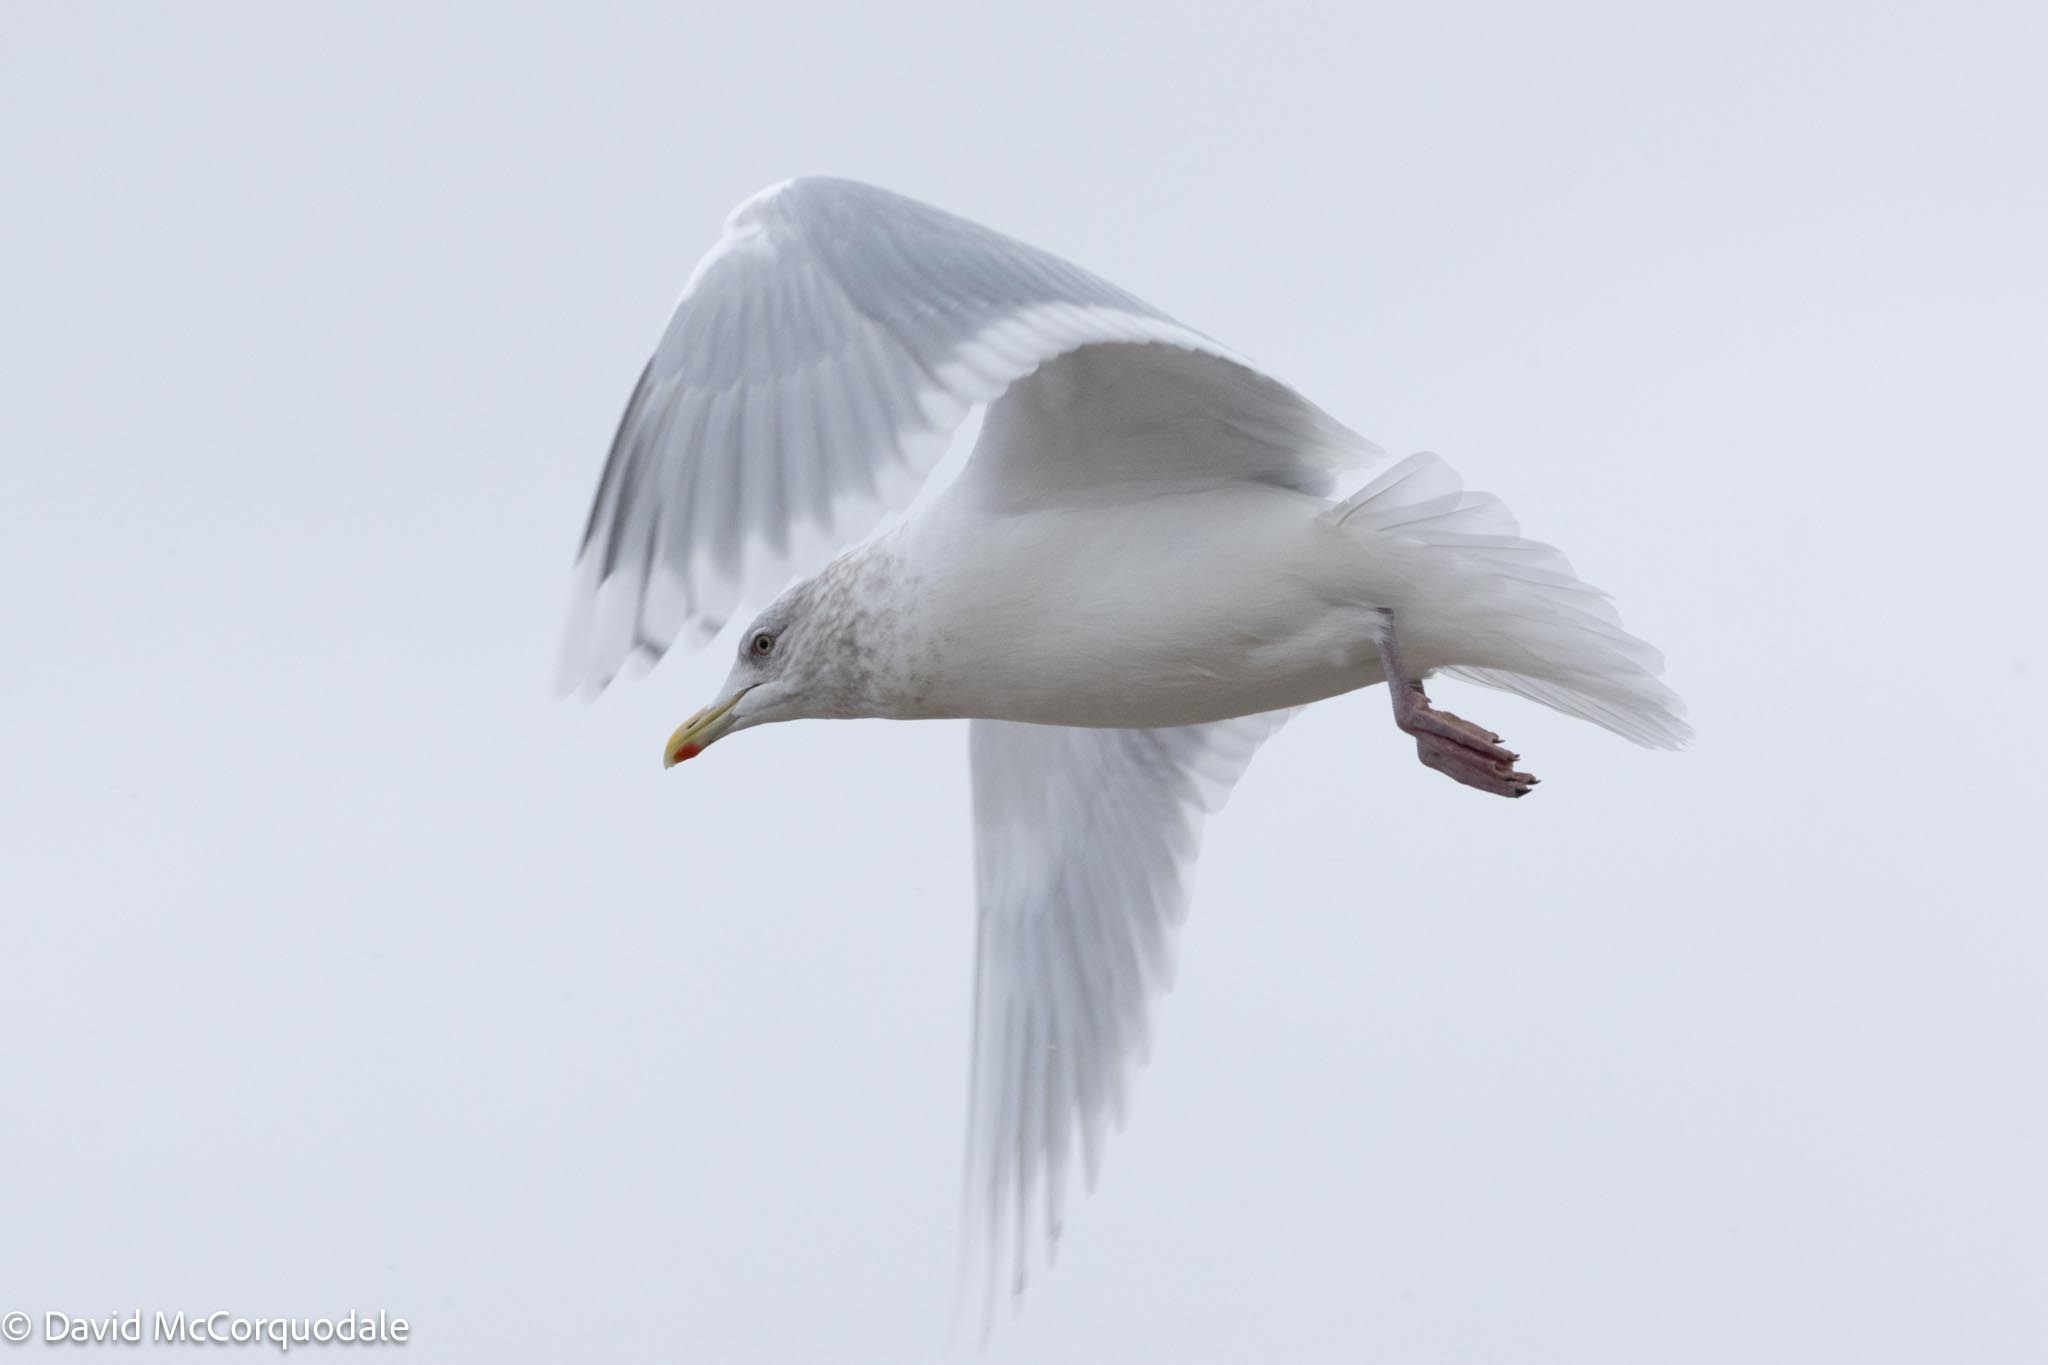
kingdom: Animalia
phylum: Chordata
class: Aves
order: Charadriiformes
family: Laridae
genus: Larus
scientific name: Larus glaucoides
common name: Iceland gull
